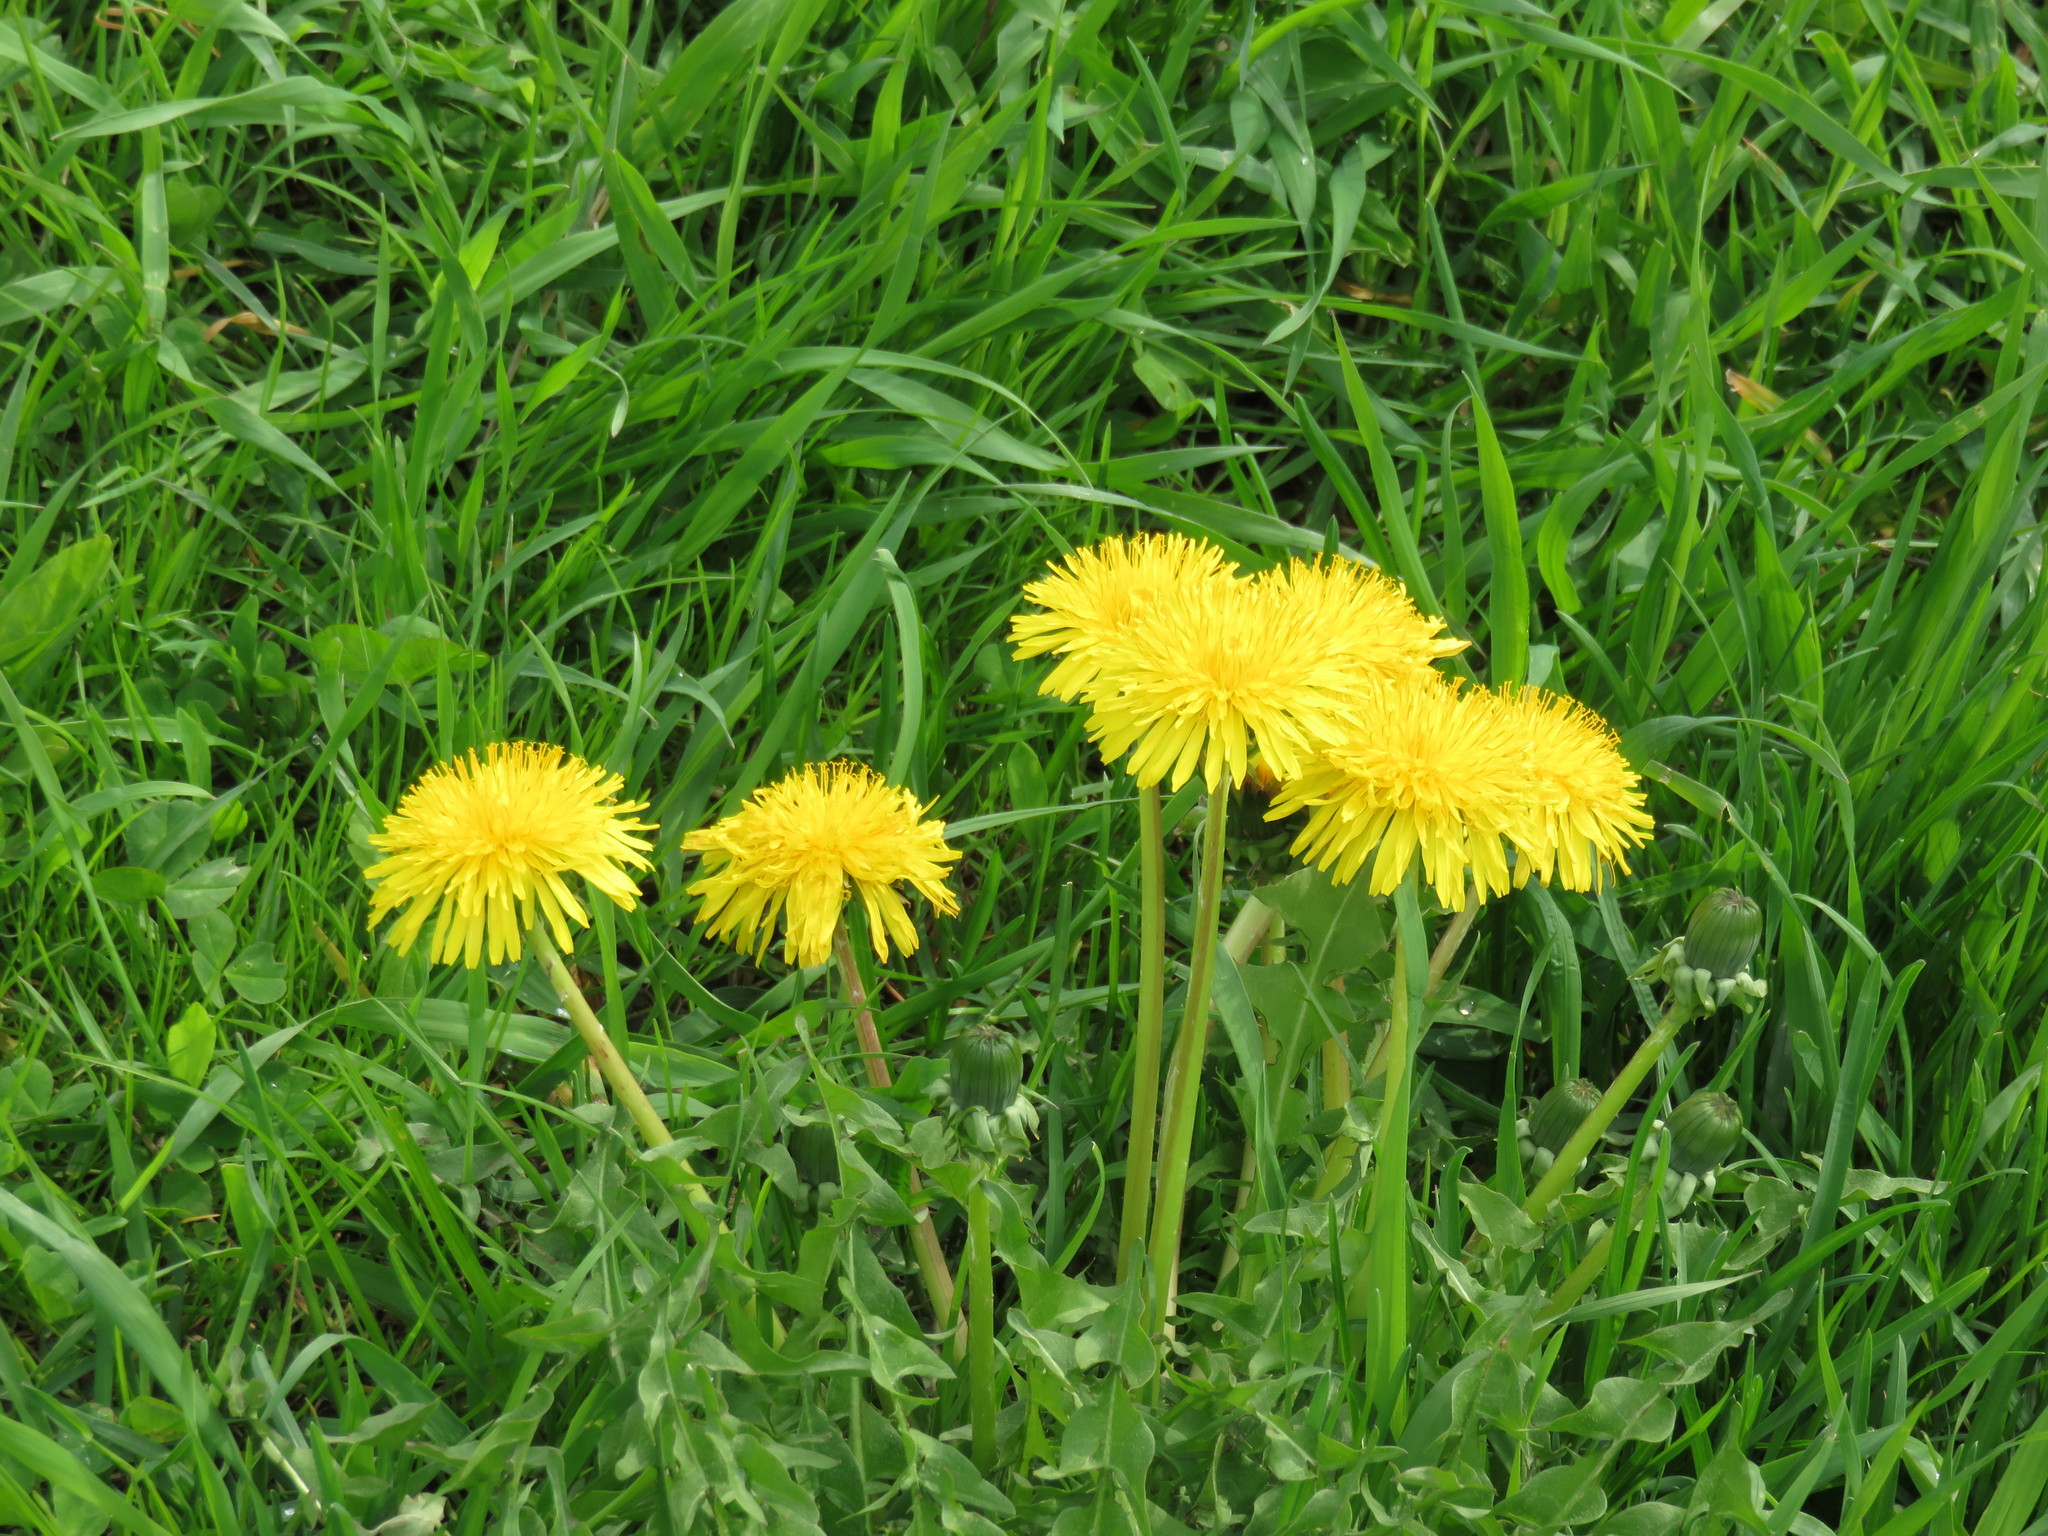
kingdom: Plantae
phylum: Tracheophyta
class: Magnoliopsida
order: Asterales
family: Asteraceae
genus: Taraxacum
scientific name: Taraxacum officinale
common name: Common dandelion
